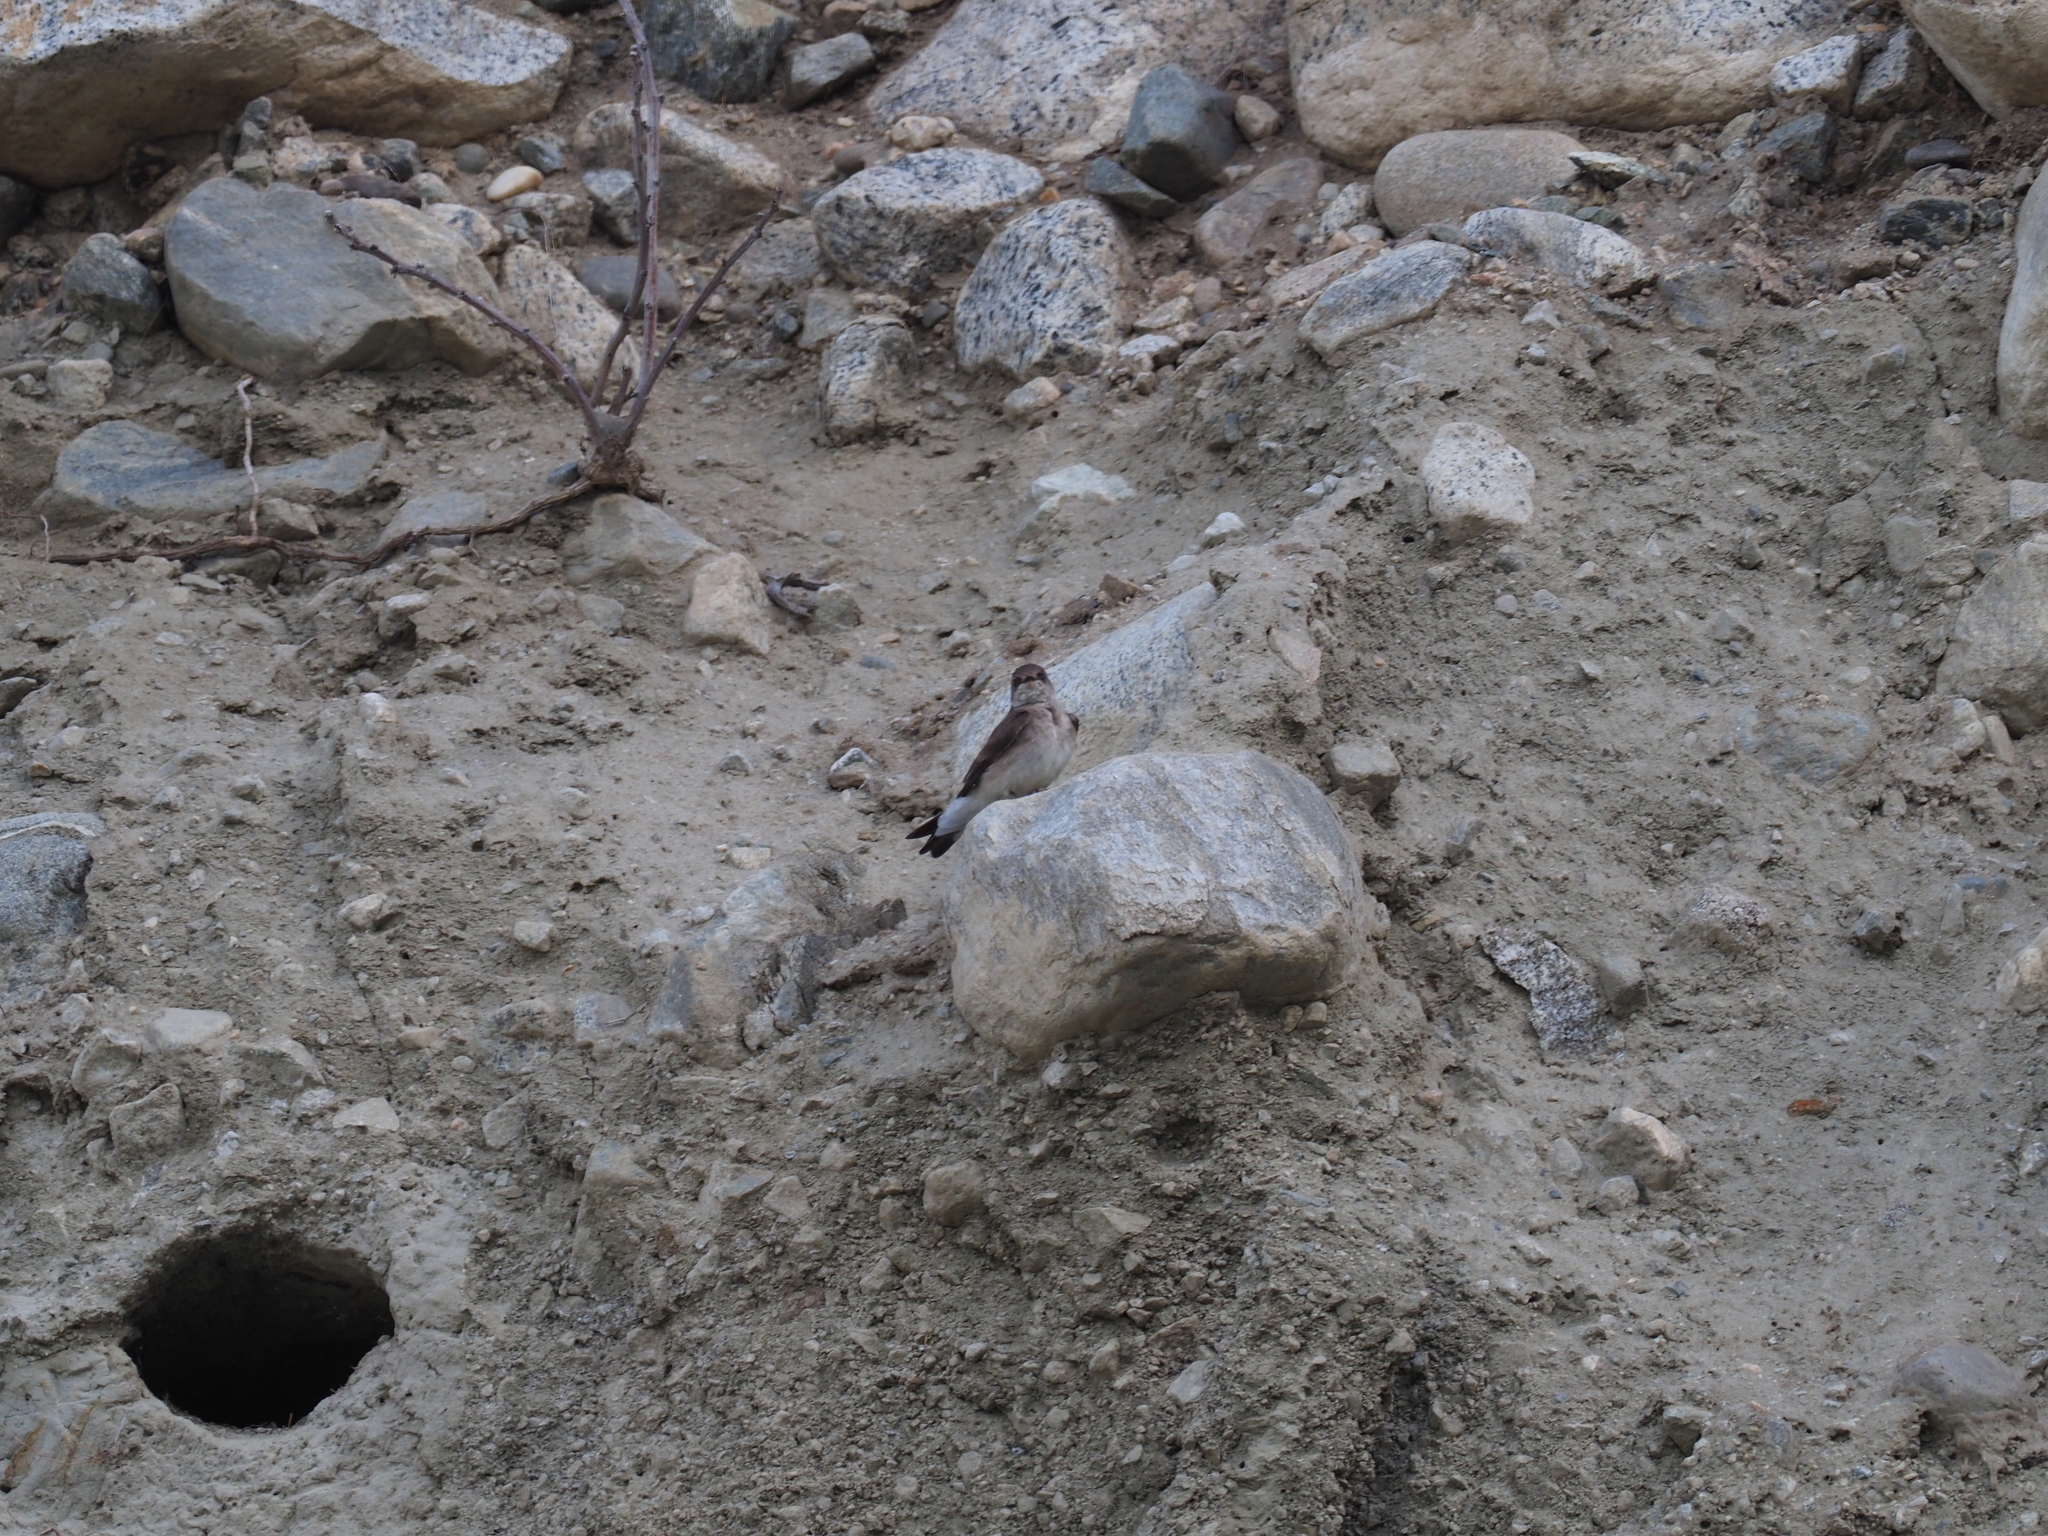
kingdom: Animalia
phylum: Chordata
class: Aves
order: Passeriformes
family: Hirundinidae
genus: Stelgidopteryx
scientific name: Stelgidopteryx serripennis
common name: Northern rough-winged swallow
